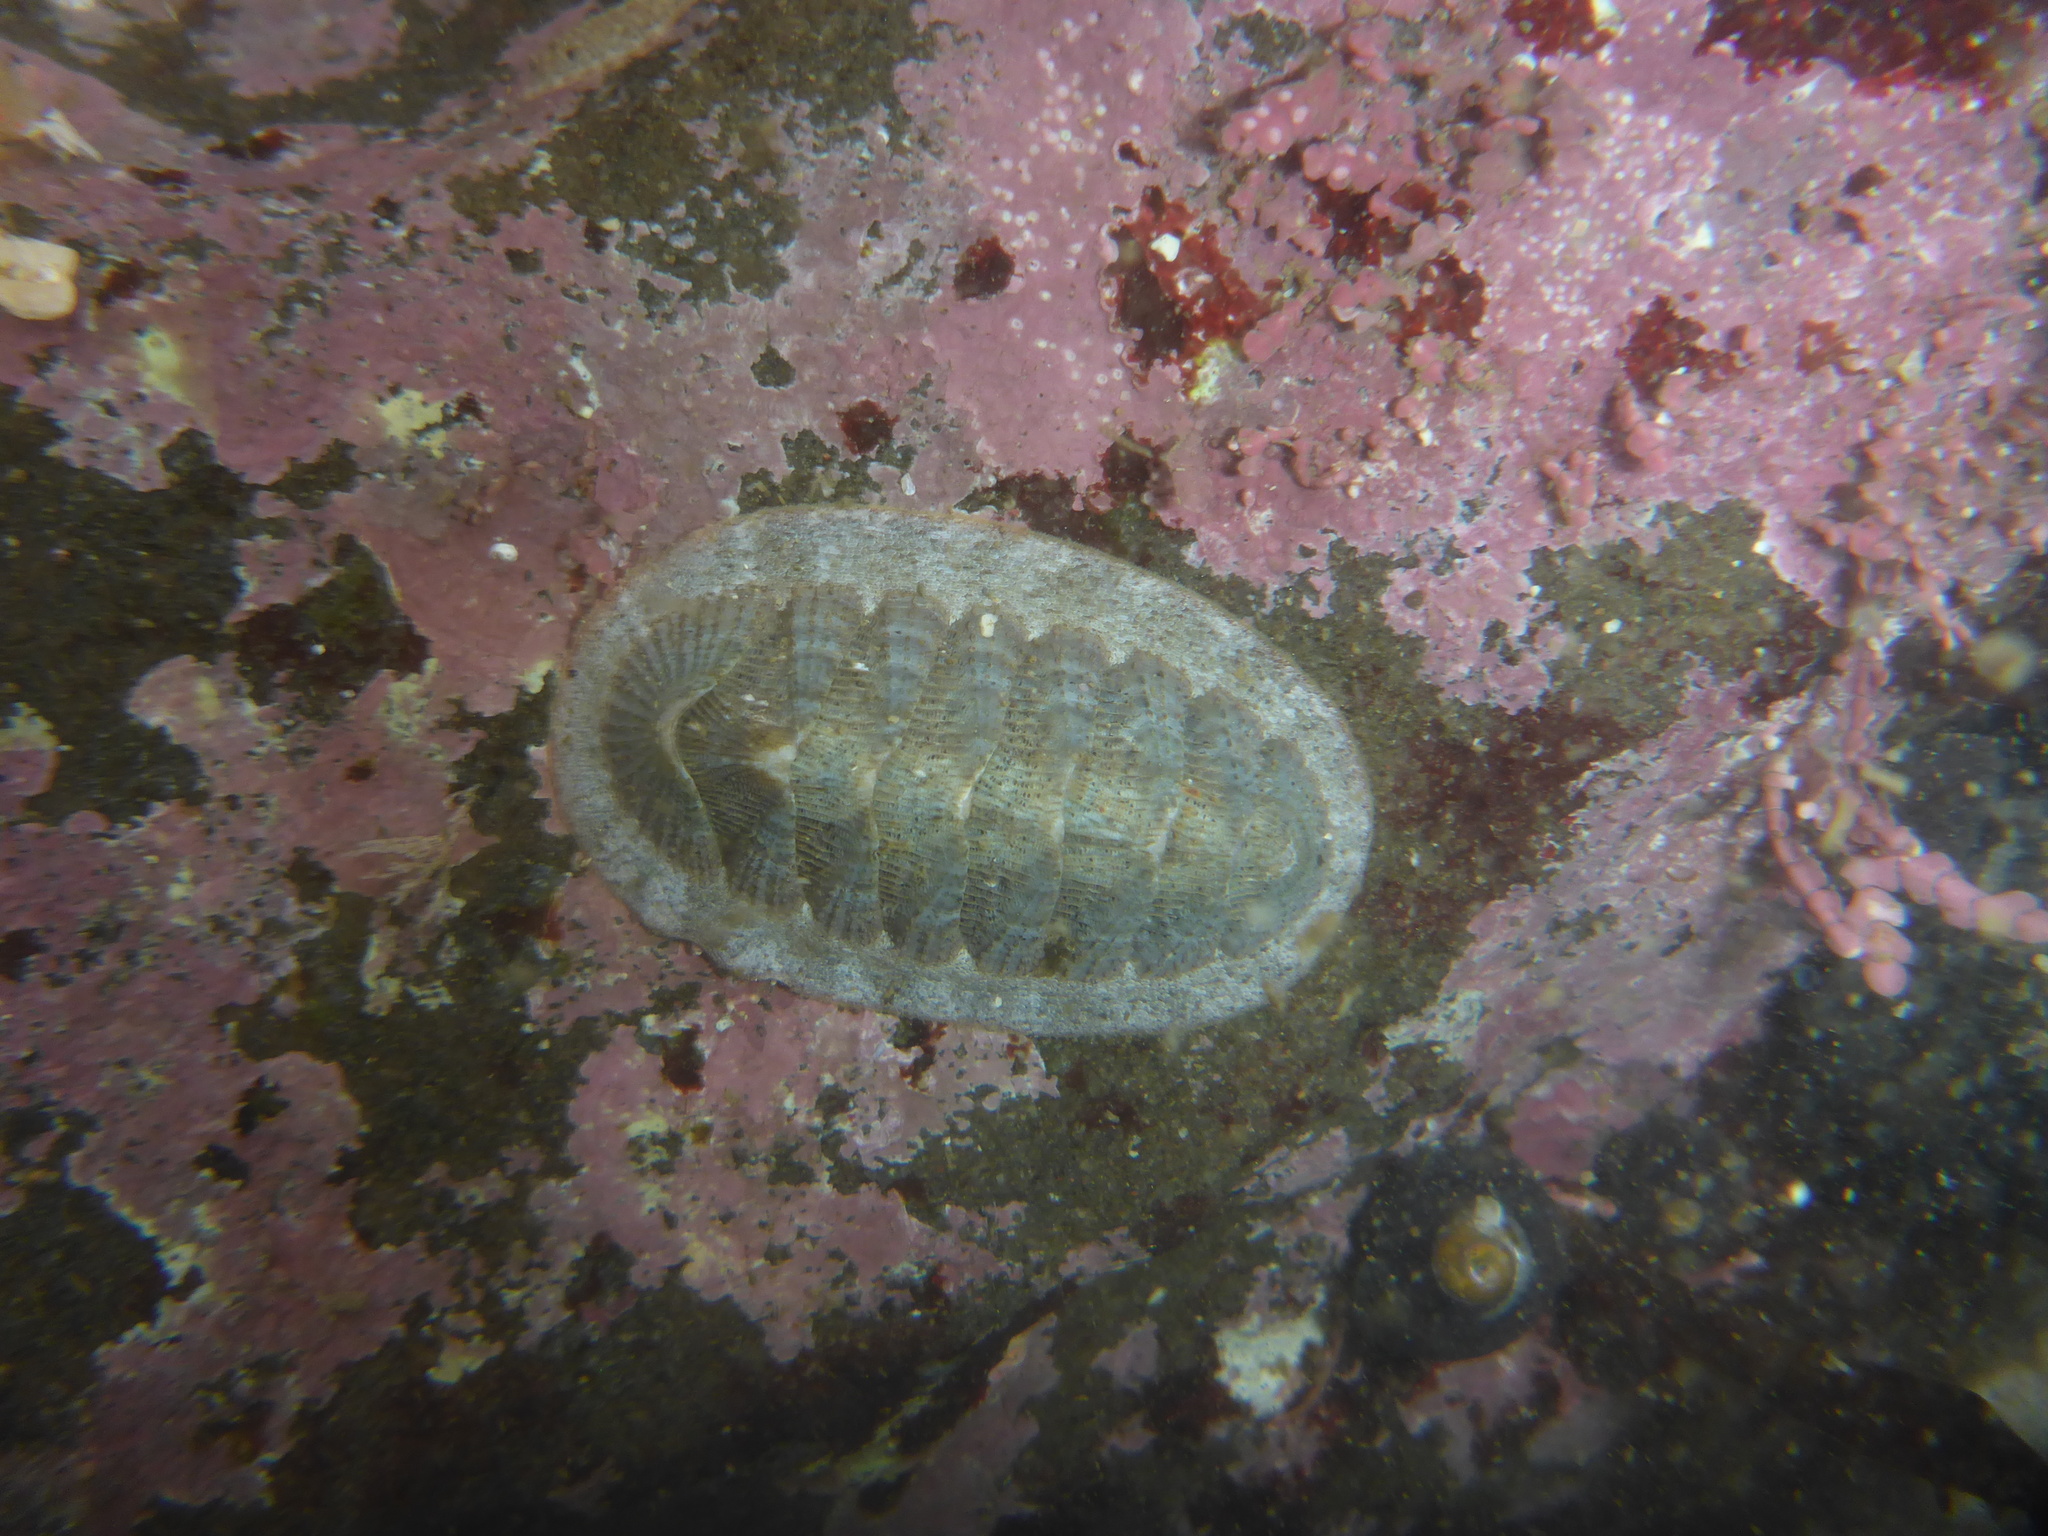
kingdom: Animalia
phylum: Mollusca
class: Polyplacophora
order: Chitonida
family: Ischnochitonidae
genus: Lepidozona
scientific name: Lepidozona cooperi
